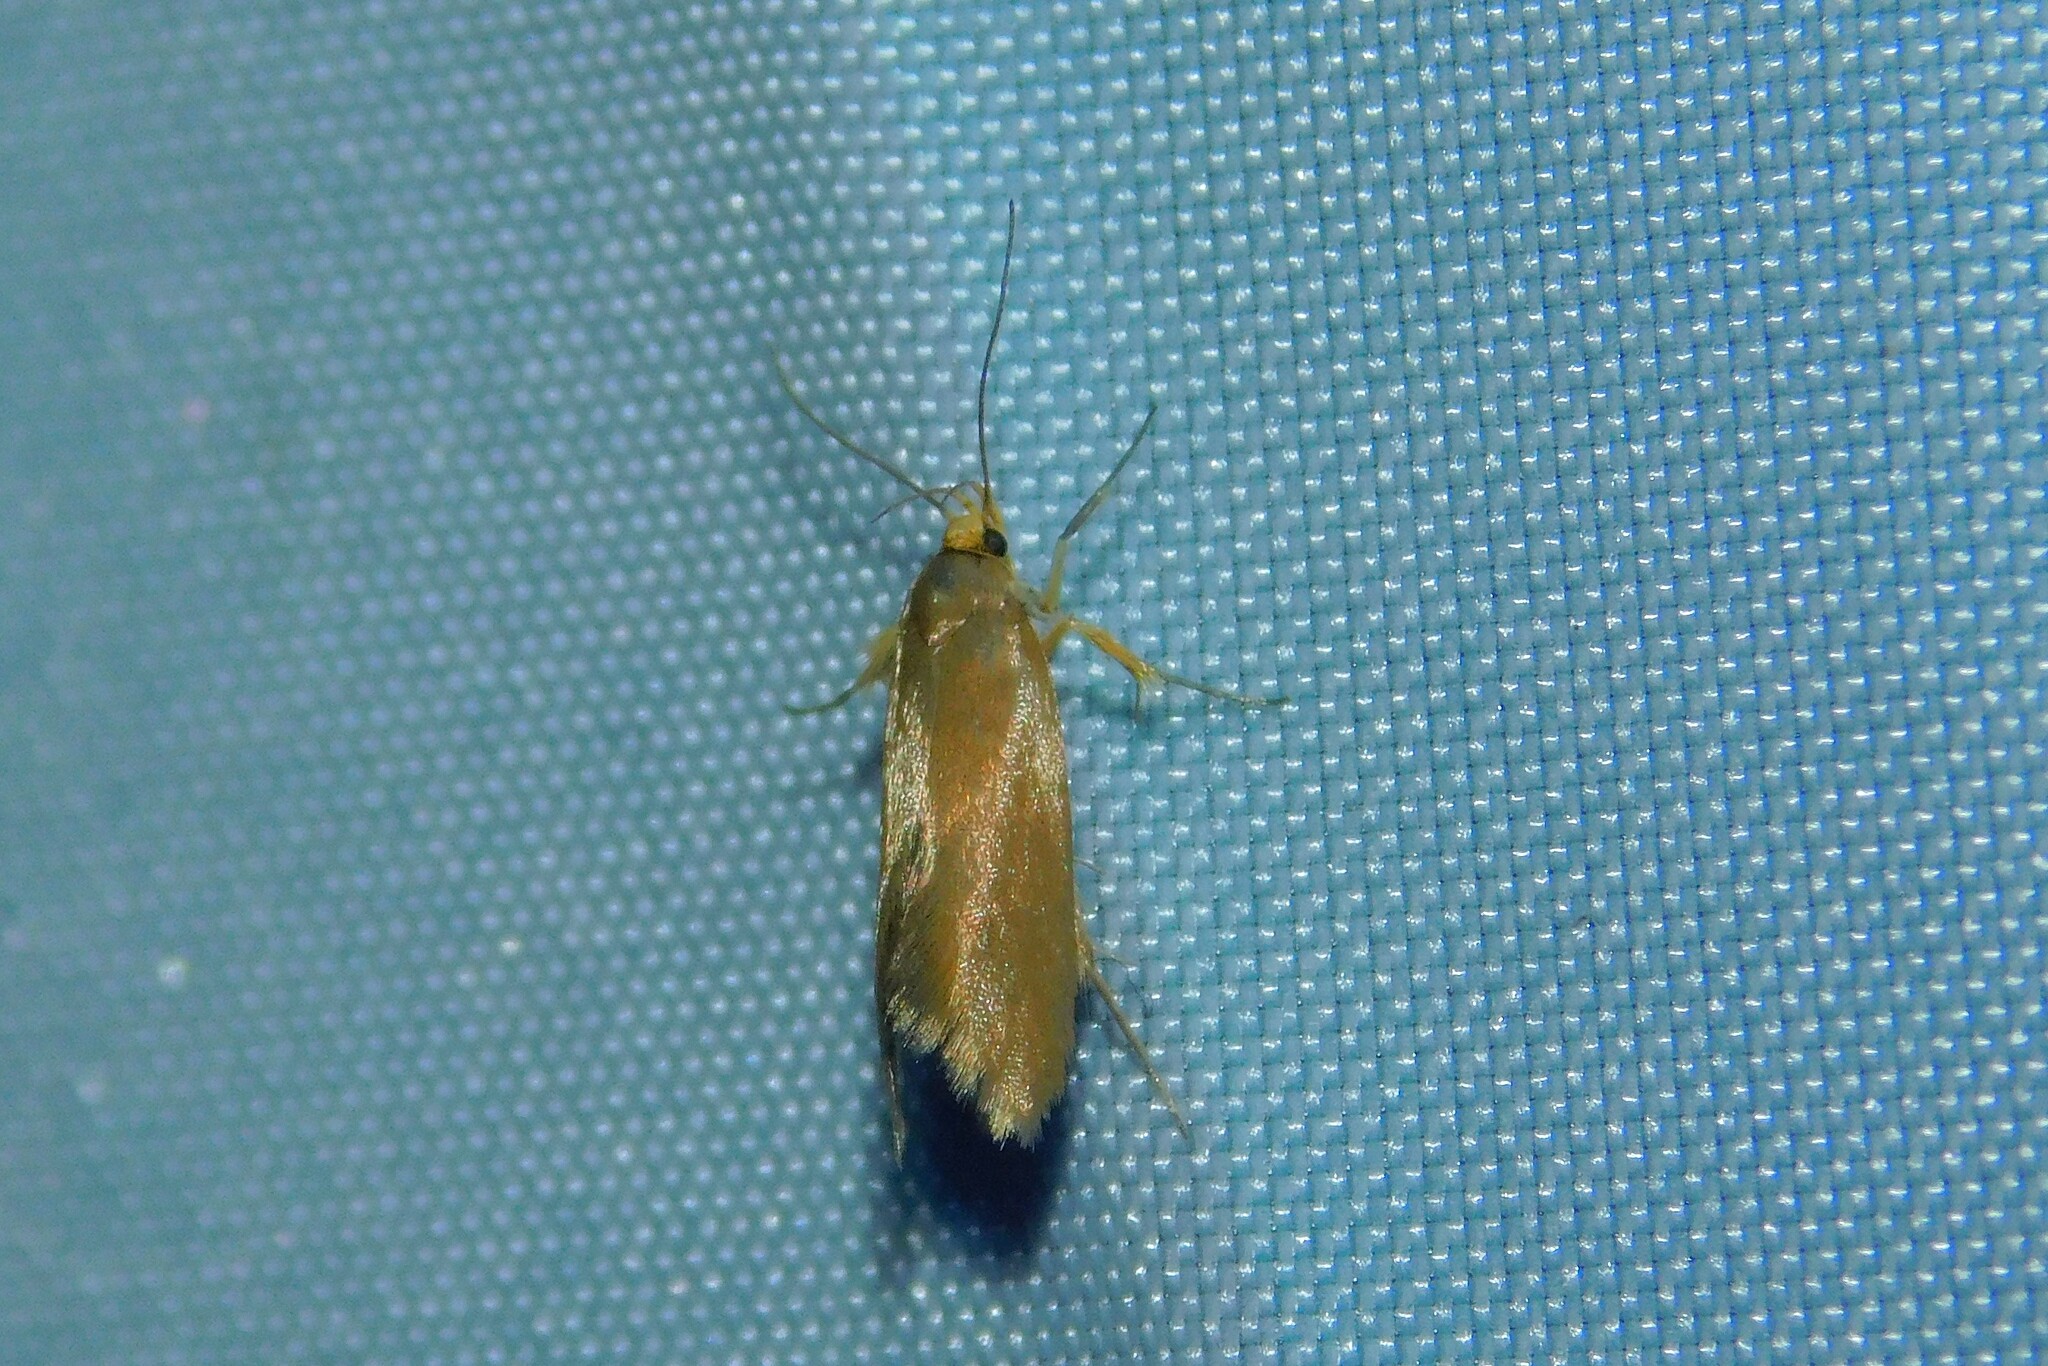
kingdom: Animalia
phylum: Arthropoda
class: Insecta
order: Lepidoptera
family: Oecophoridae
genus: Borkhausenia
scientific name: Borkhausenia Crassa unitella
